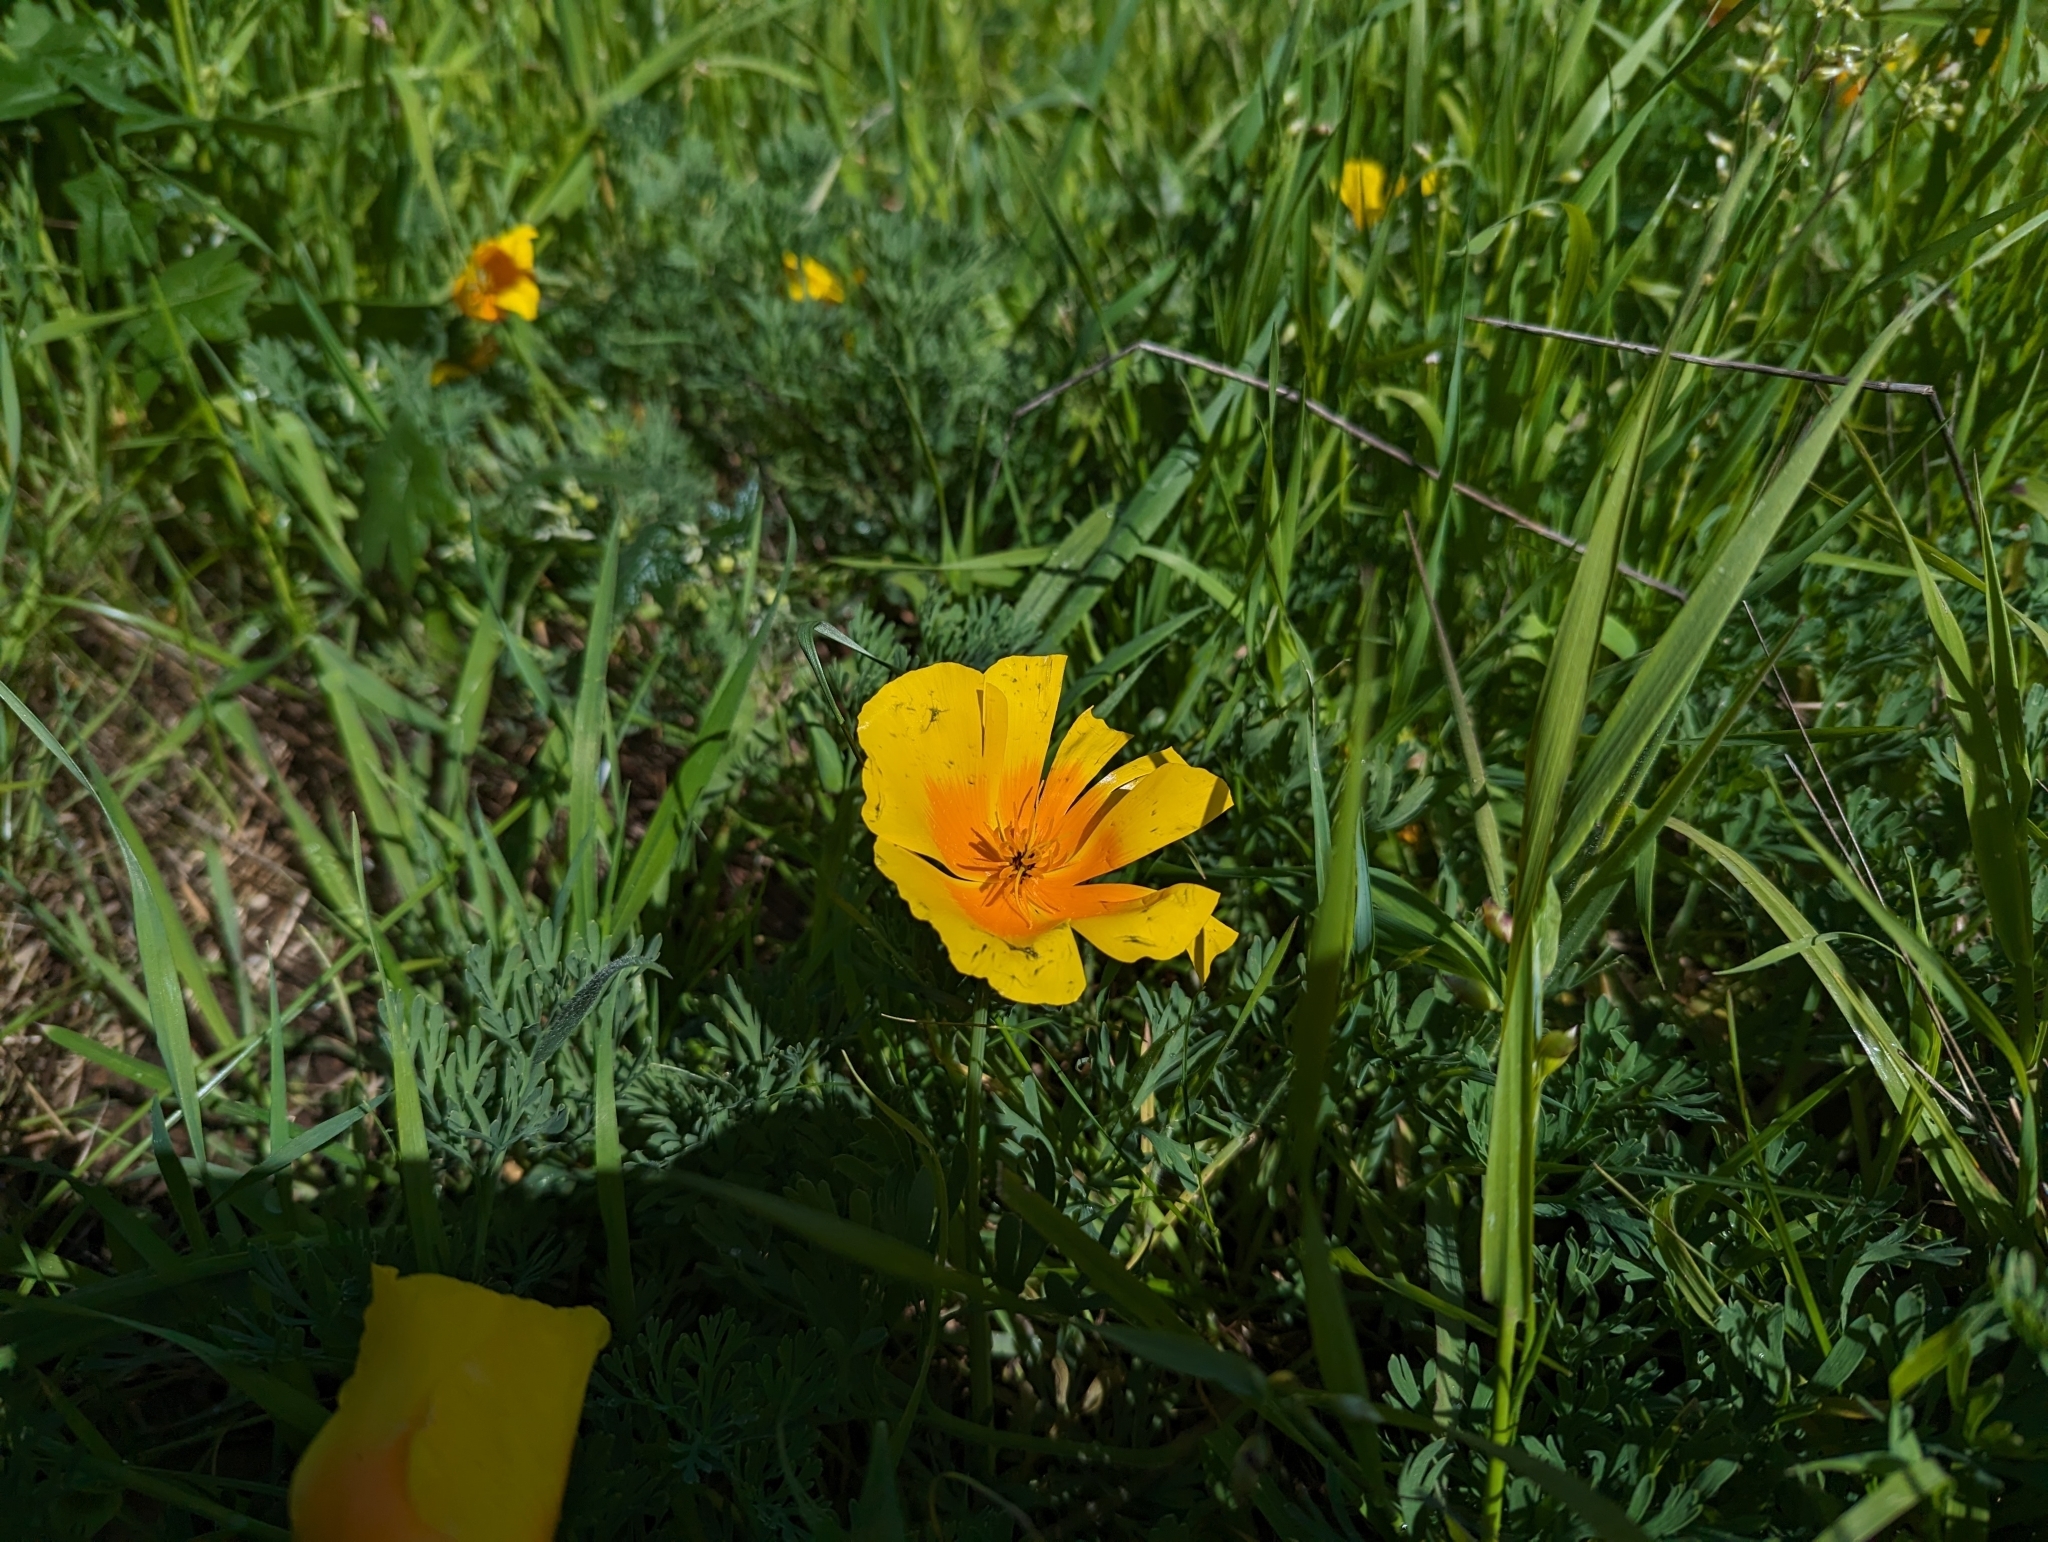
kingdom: Plantae
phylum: Tracheophyta
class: Magnoliopsida
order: Ranunculales
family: Papaveraceae
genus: Eschscholzia
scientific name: Eschscholzia californica
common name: California poppy
